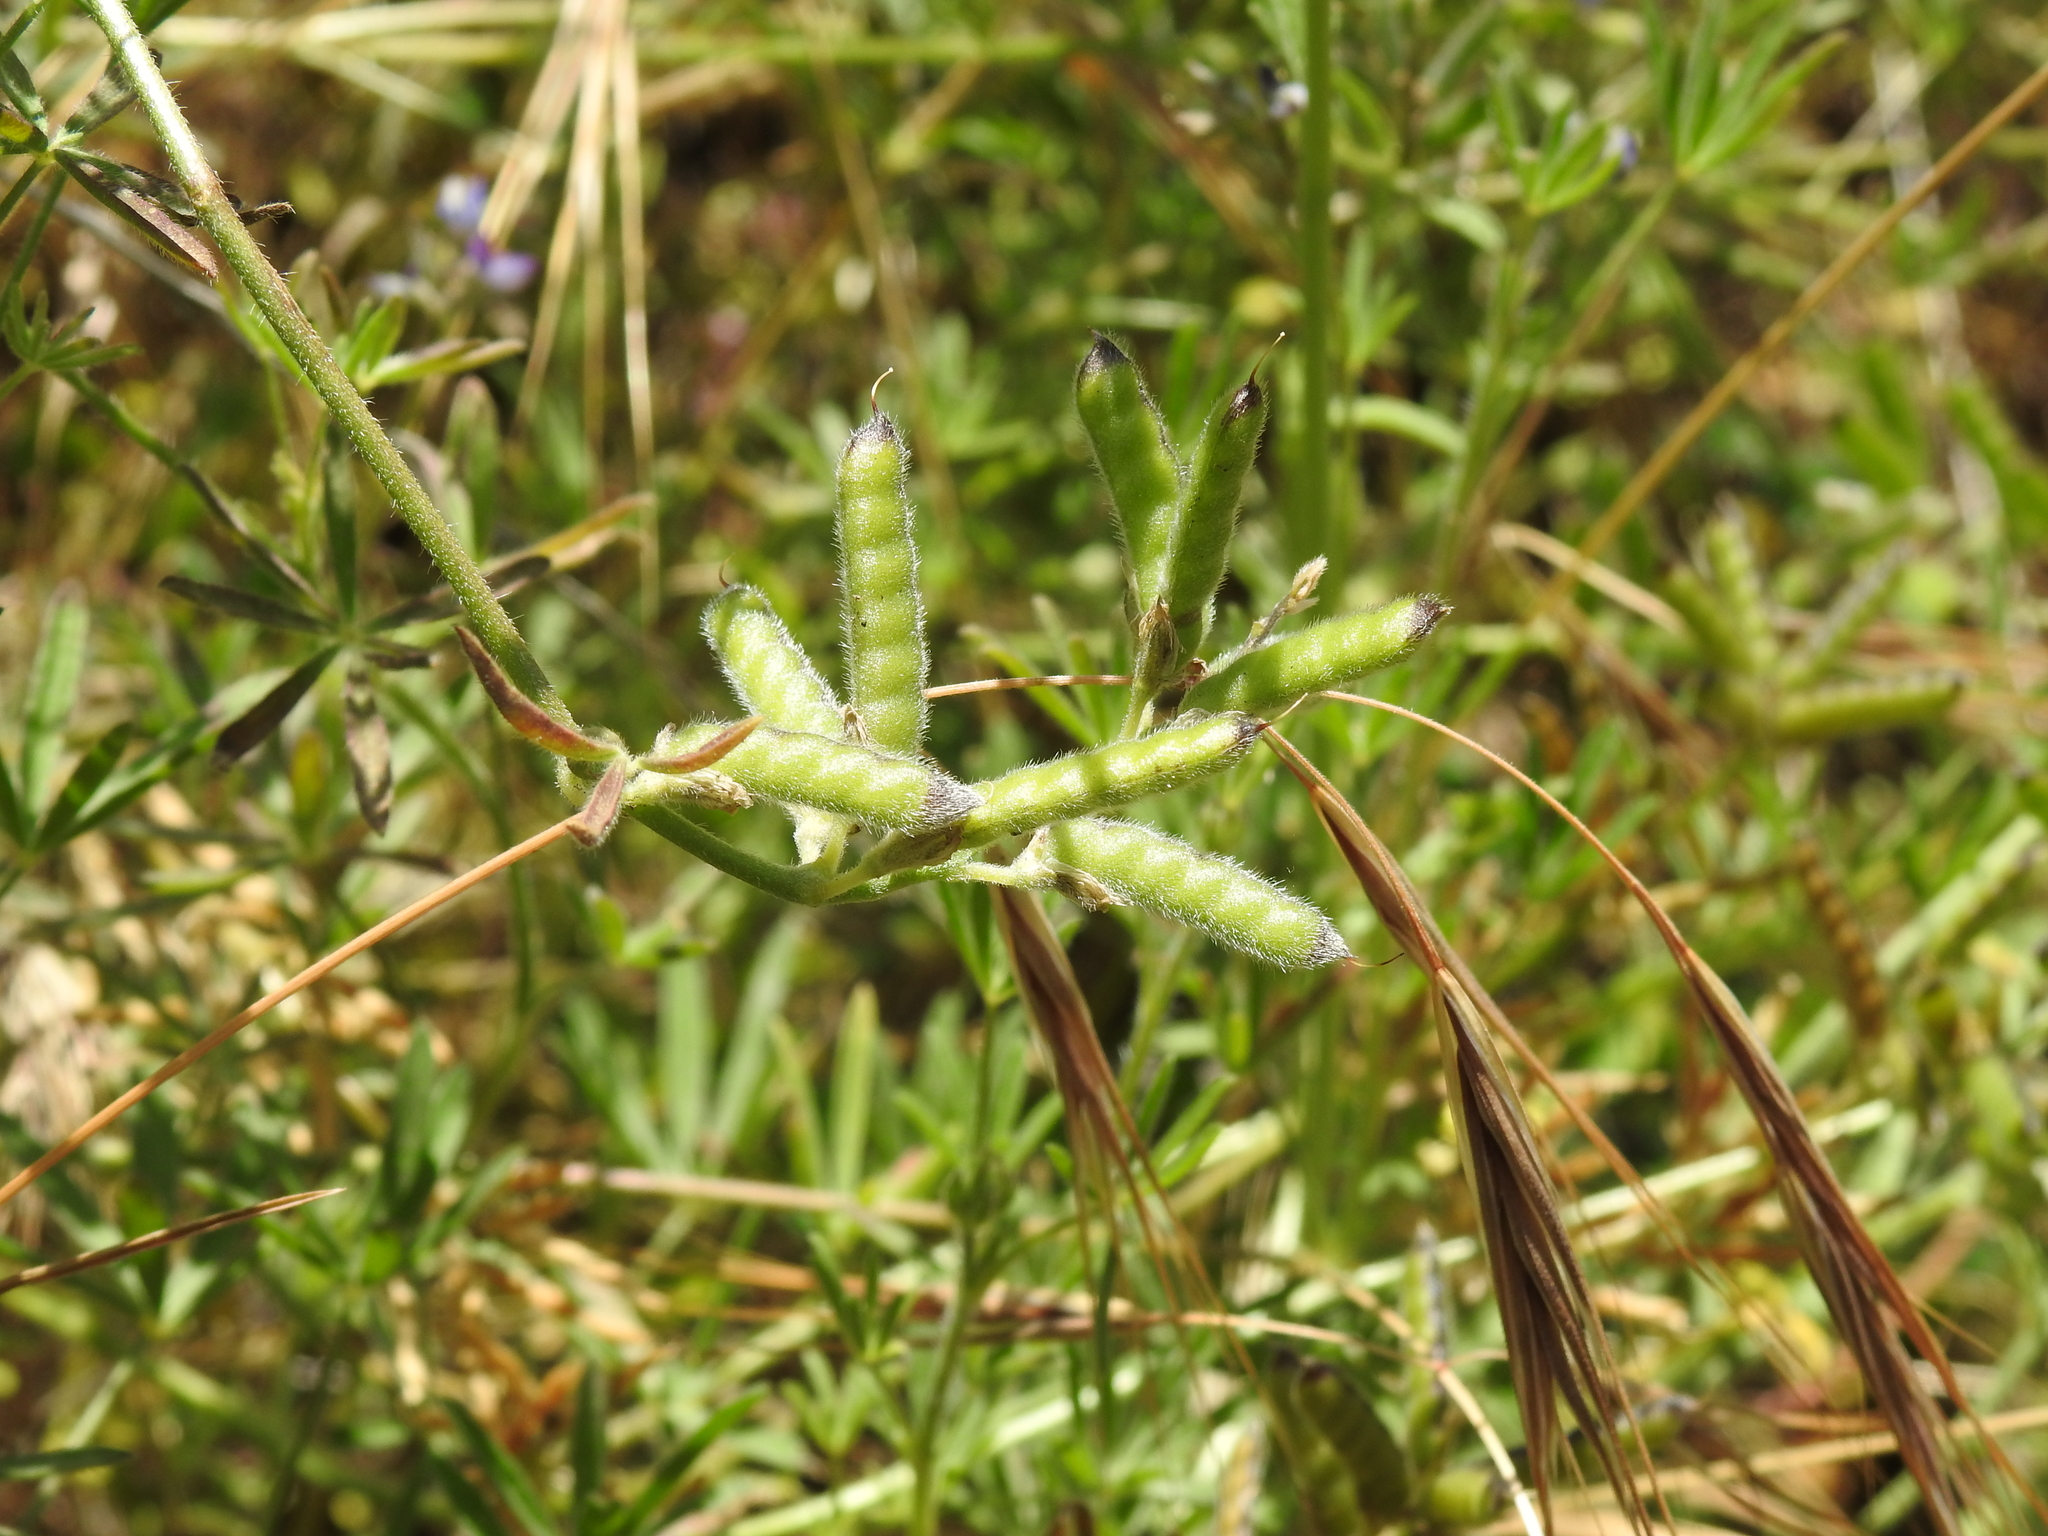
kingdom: Plantae
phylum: Tracheophyta
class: Magnoliopsida
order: Fabales
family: Fabaceae
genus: Lupinus
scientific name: Lupinus bicolor
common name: Miniature lupine
